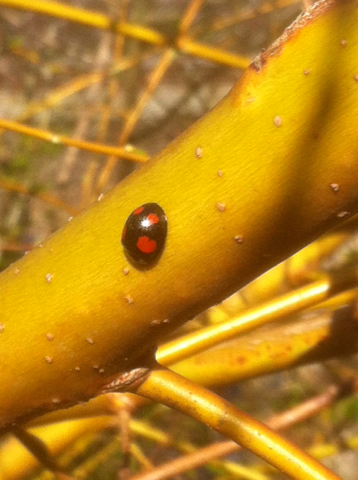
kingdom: Animalia
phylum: Arthropoda
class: Insecta
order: Coleoptera
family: Coccinellidae
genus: Harmonia
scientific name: Harmonia axyridis
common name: Harlequin ladybird
